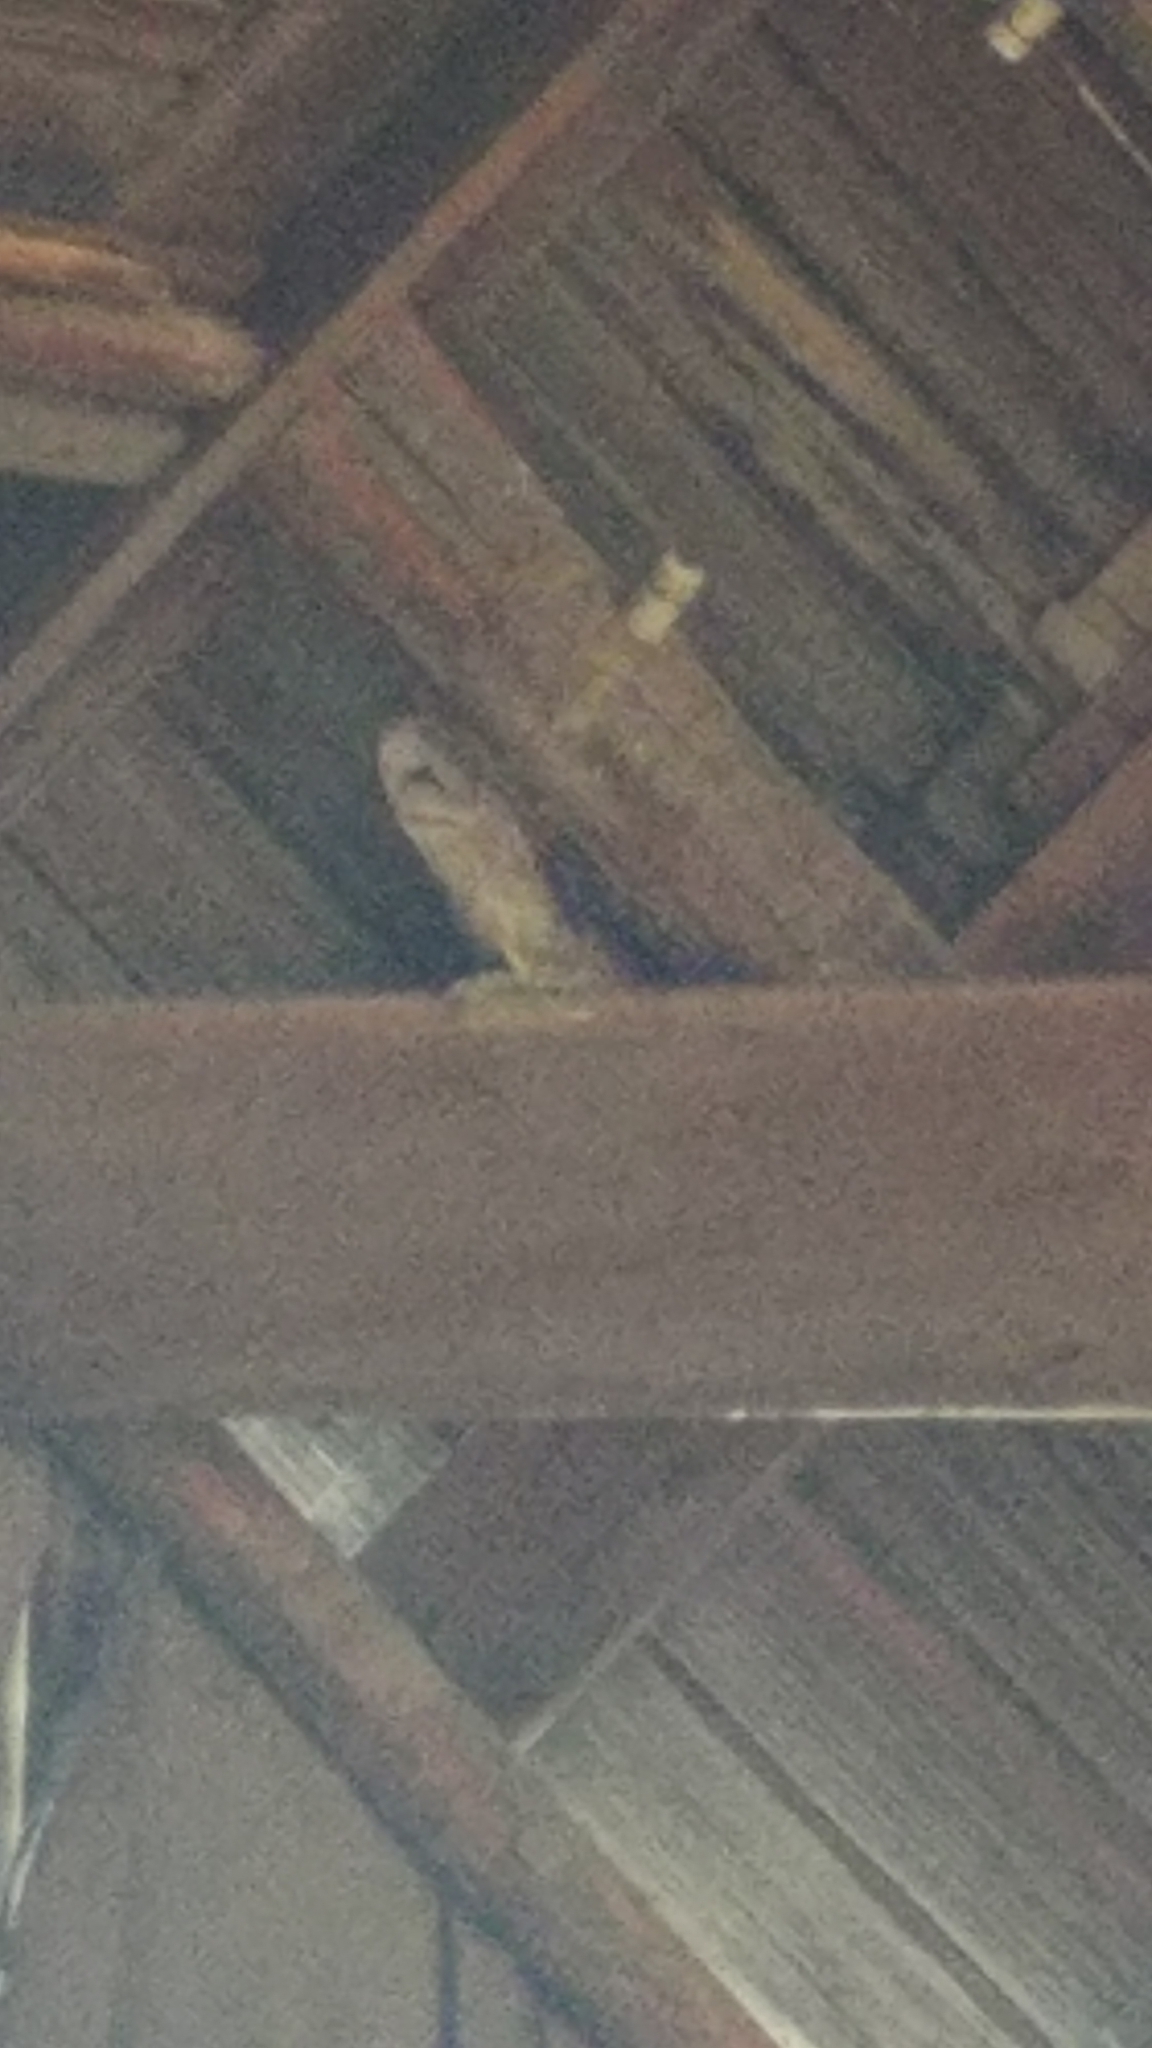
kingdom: Animalia
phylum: Chordata
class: Aves
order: Strigiformes
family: Tytonidae
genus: Tyto
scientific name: Tyto alba
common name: Barn owl
